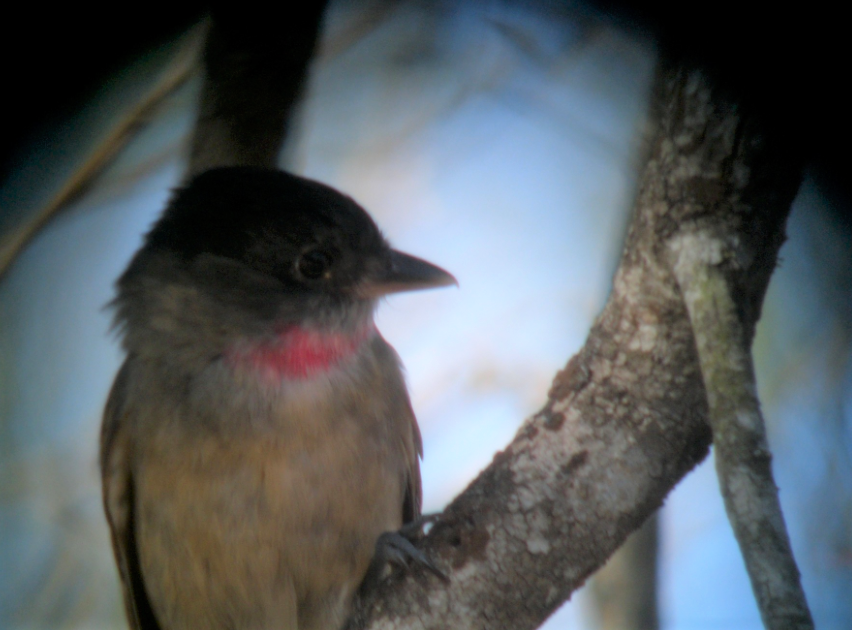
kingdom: Animalia
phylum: Chordata
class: Aves
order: Passeriformes
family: Cotingidae
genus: Pachyramphus
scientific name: Pachyramphus aglaiae
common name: Rose-throated becard
